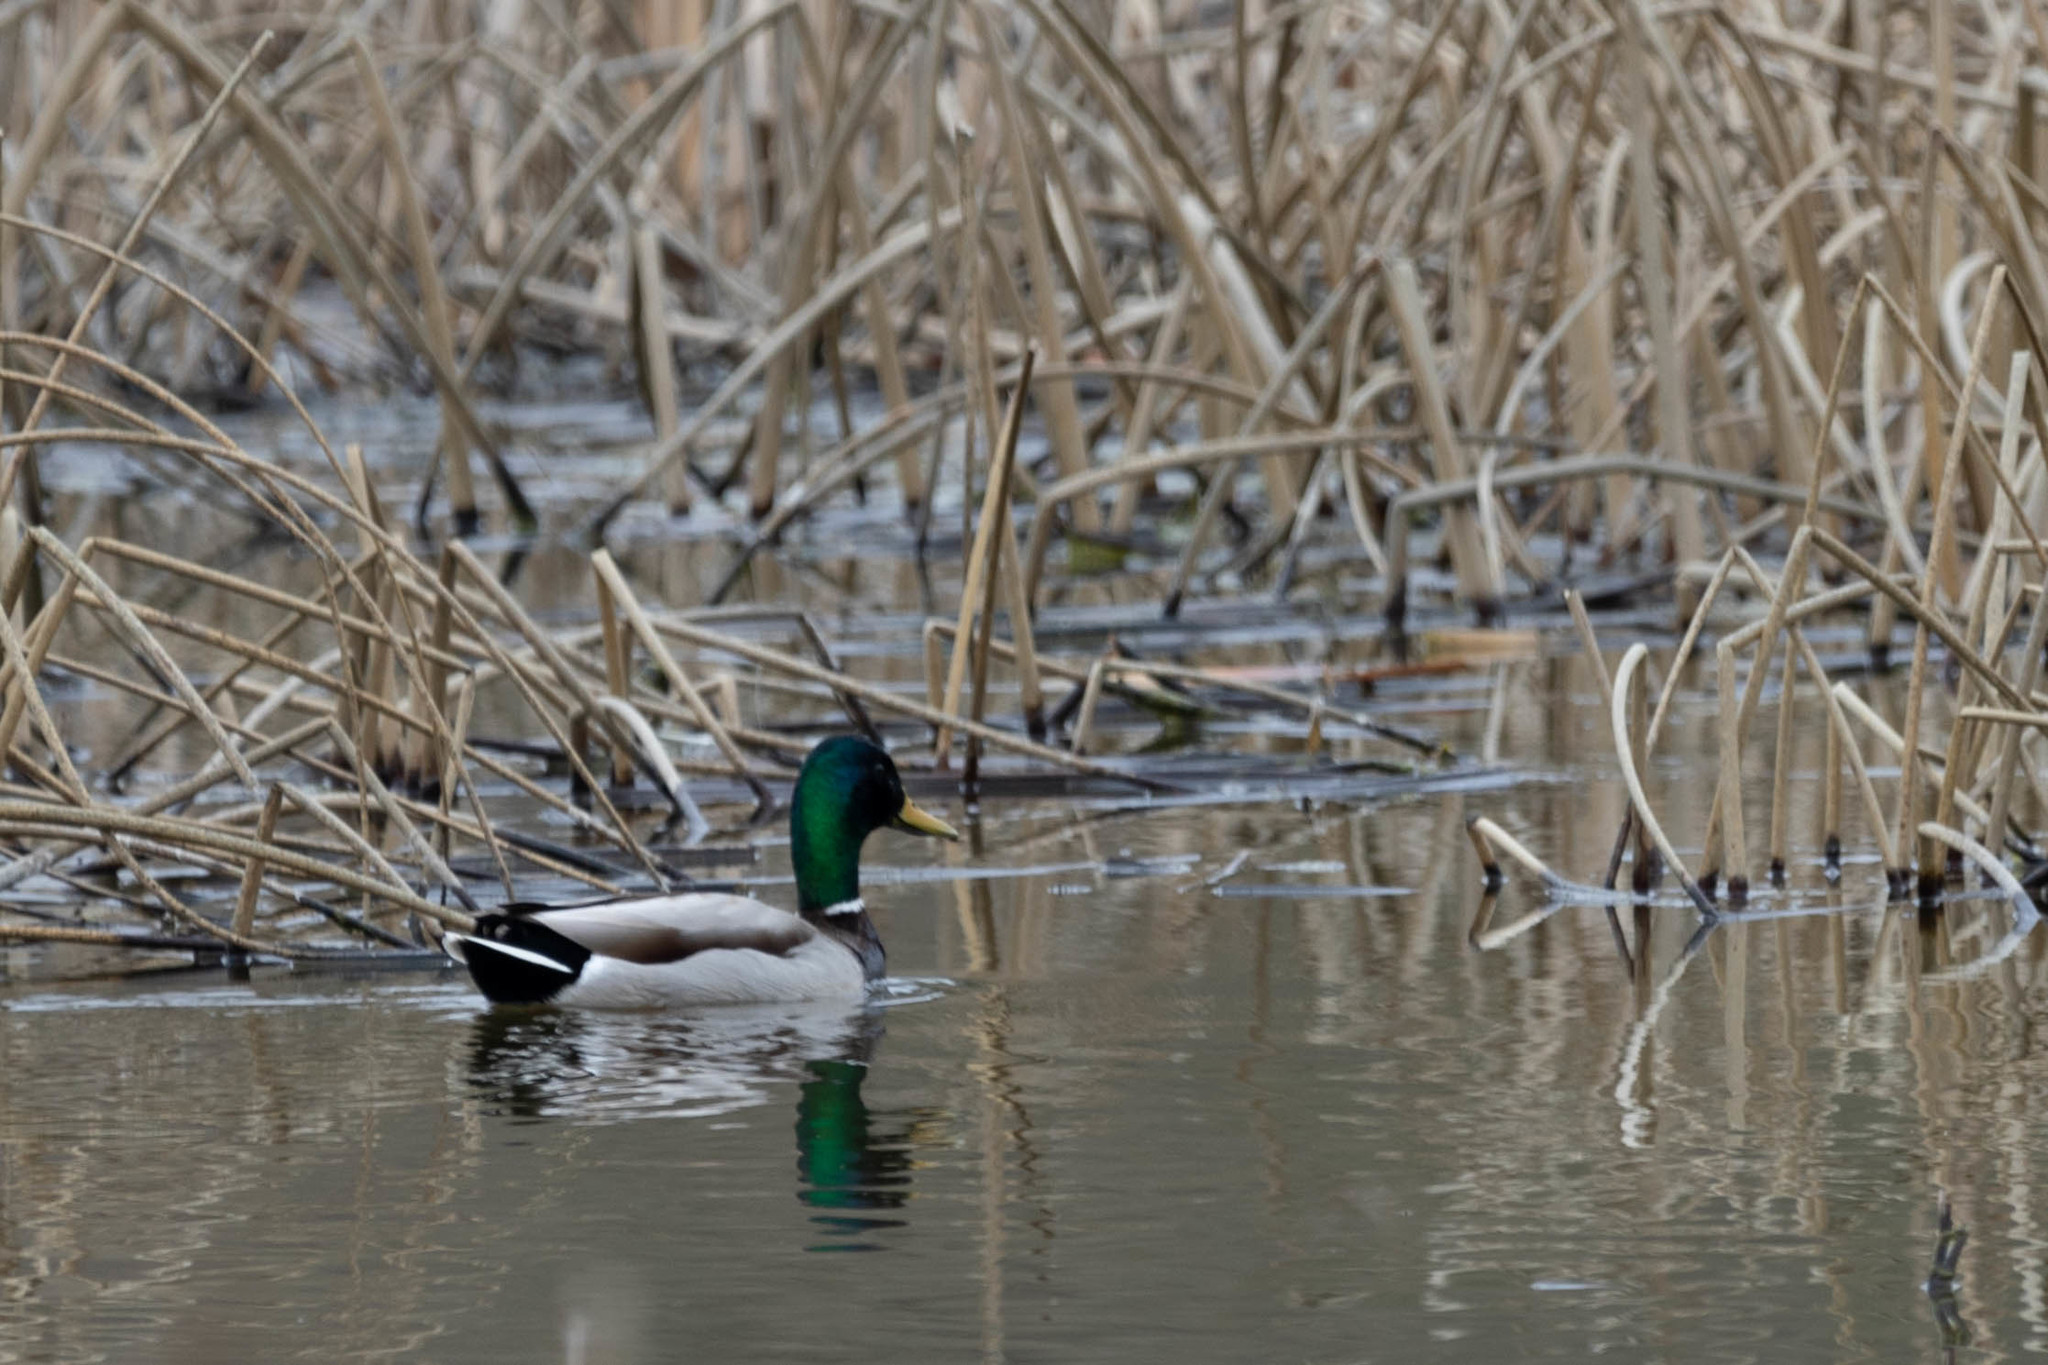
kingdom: Animalia
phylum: Chordata
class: Aves
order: Anseriformes
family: Anatidae
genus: Anas
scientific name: Anas platyrhynchos
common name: Mallard
